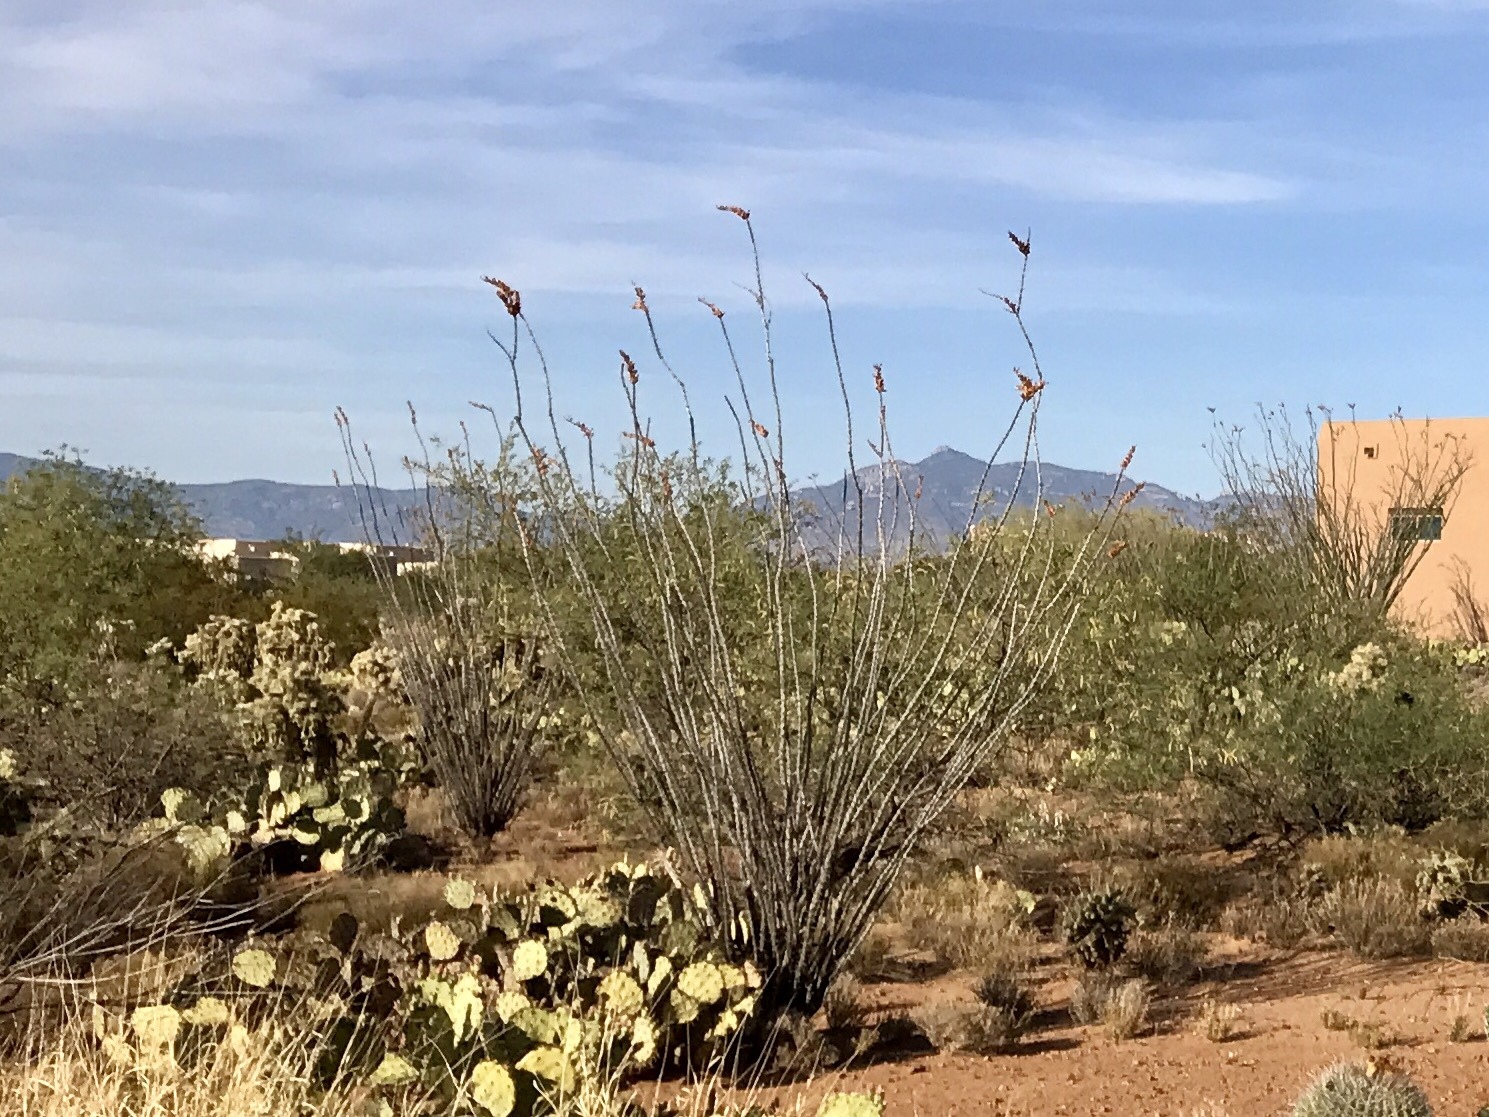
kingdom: Plantae
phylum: Tracheophyta
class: Magnoliopsida
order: Ericales
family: Fouquieriaceae
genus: Fouquieria
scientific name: Fouquieria splendens
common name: Vine-cactus
